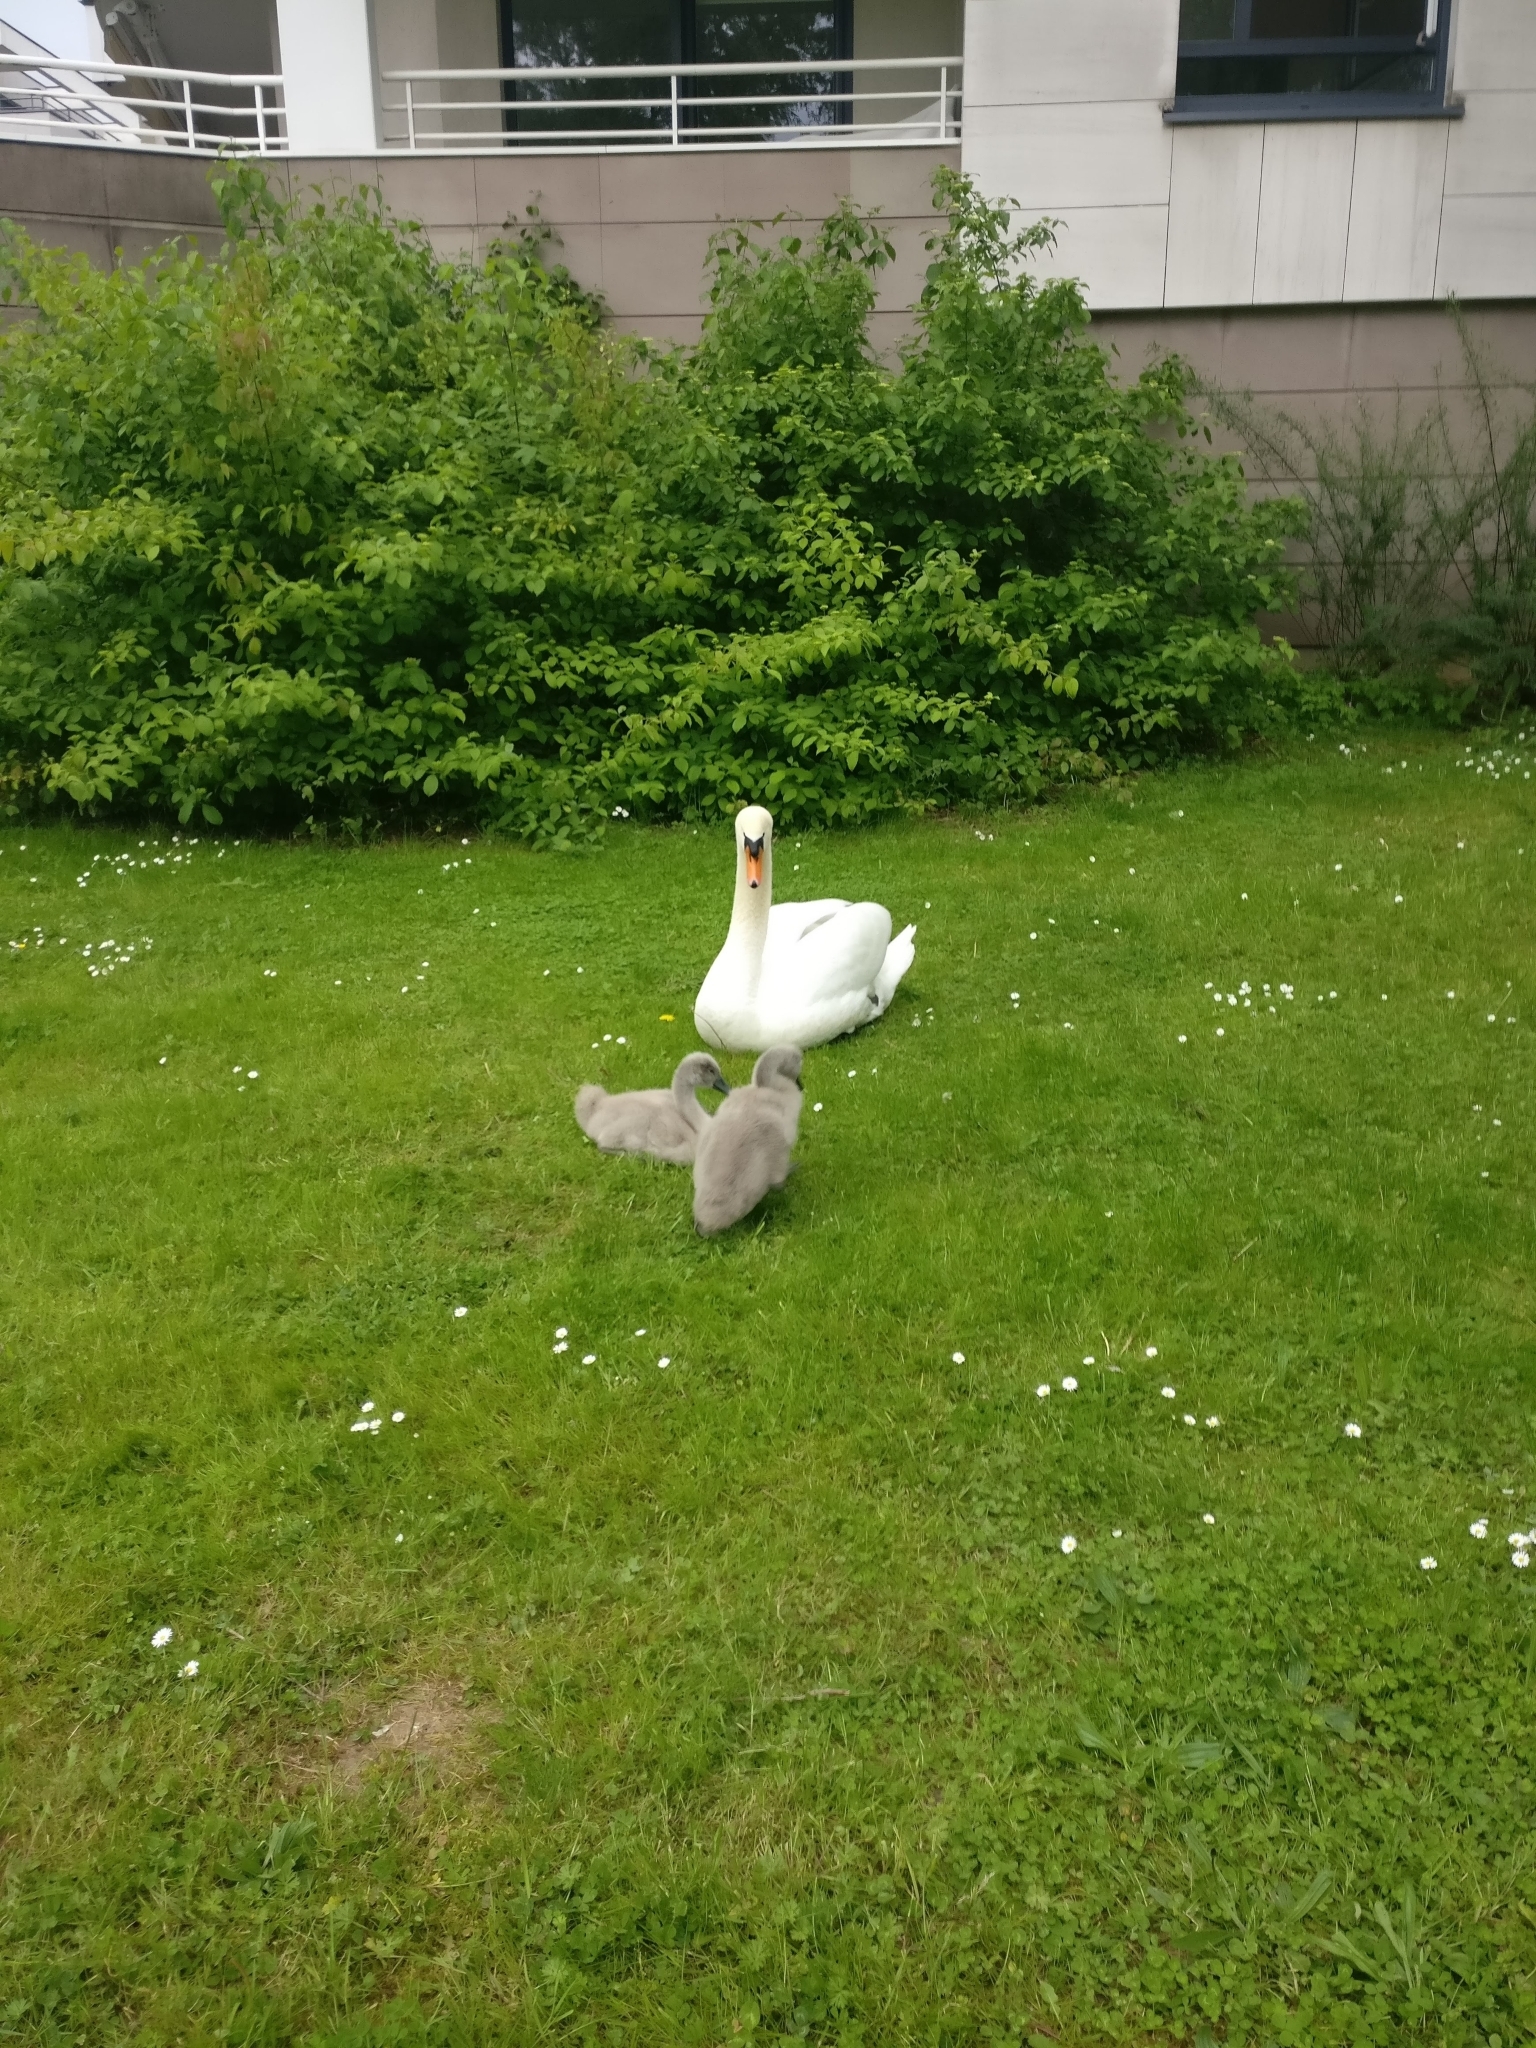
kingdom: Animalia
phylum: Chordata
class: Aves
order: Anseriformes
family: Anatidae
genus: Cygnus
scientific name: Cygnus olor
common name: Mute swan
